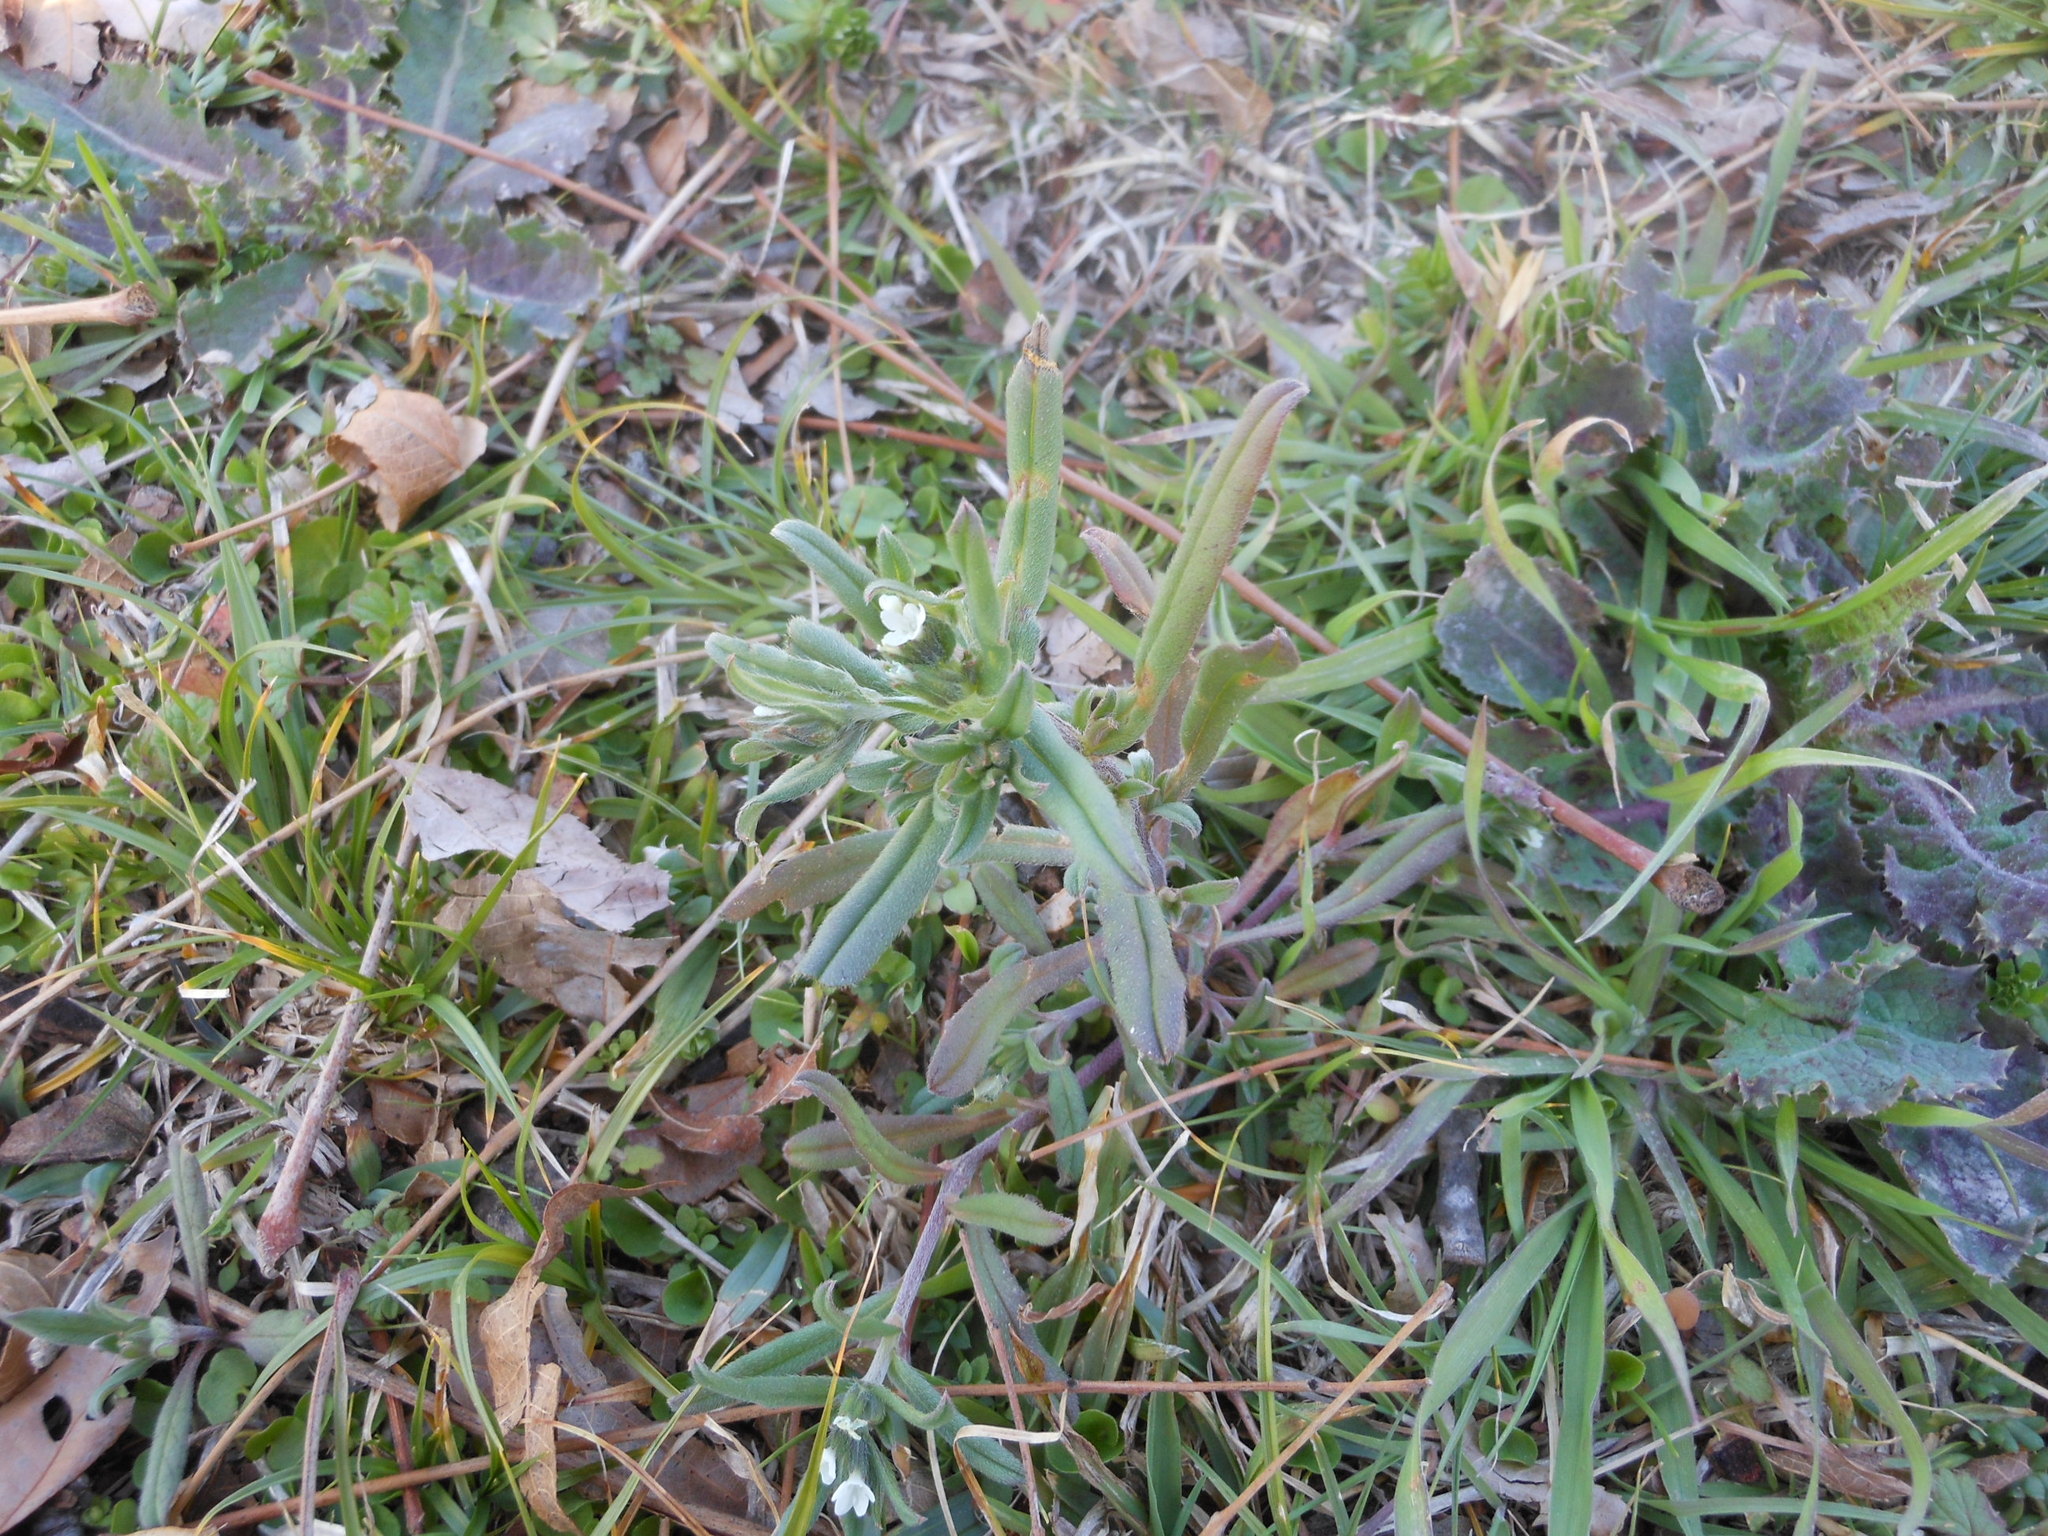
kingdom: Plantae
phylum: Tracheophyta
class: Magnoliopsida
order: Boraginales
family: Boraginaceae
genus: Buglossoides
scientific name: Buglossoides arvensis
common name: Corn gromwell
